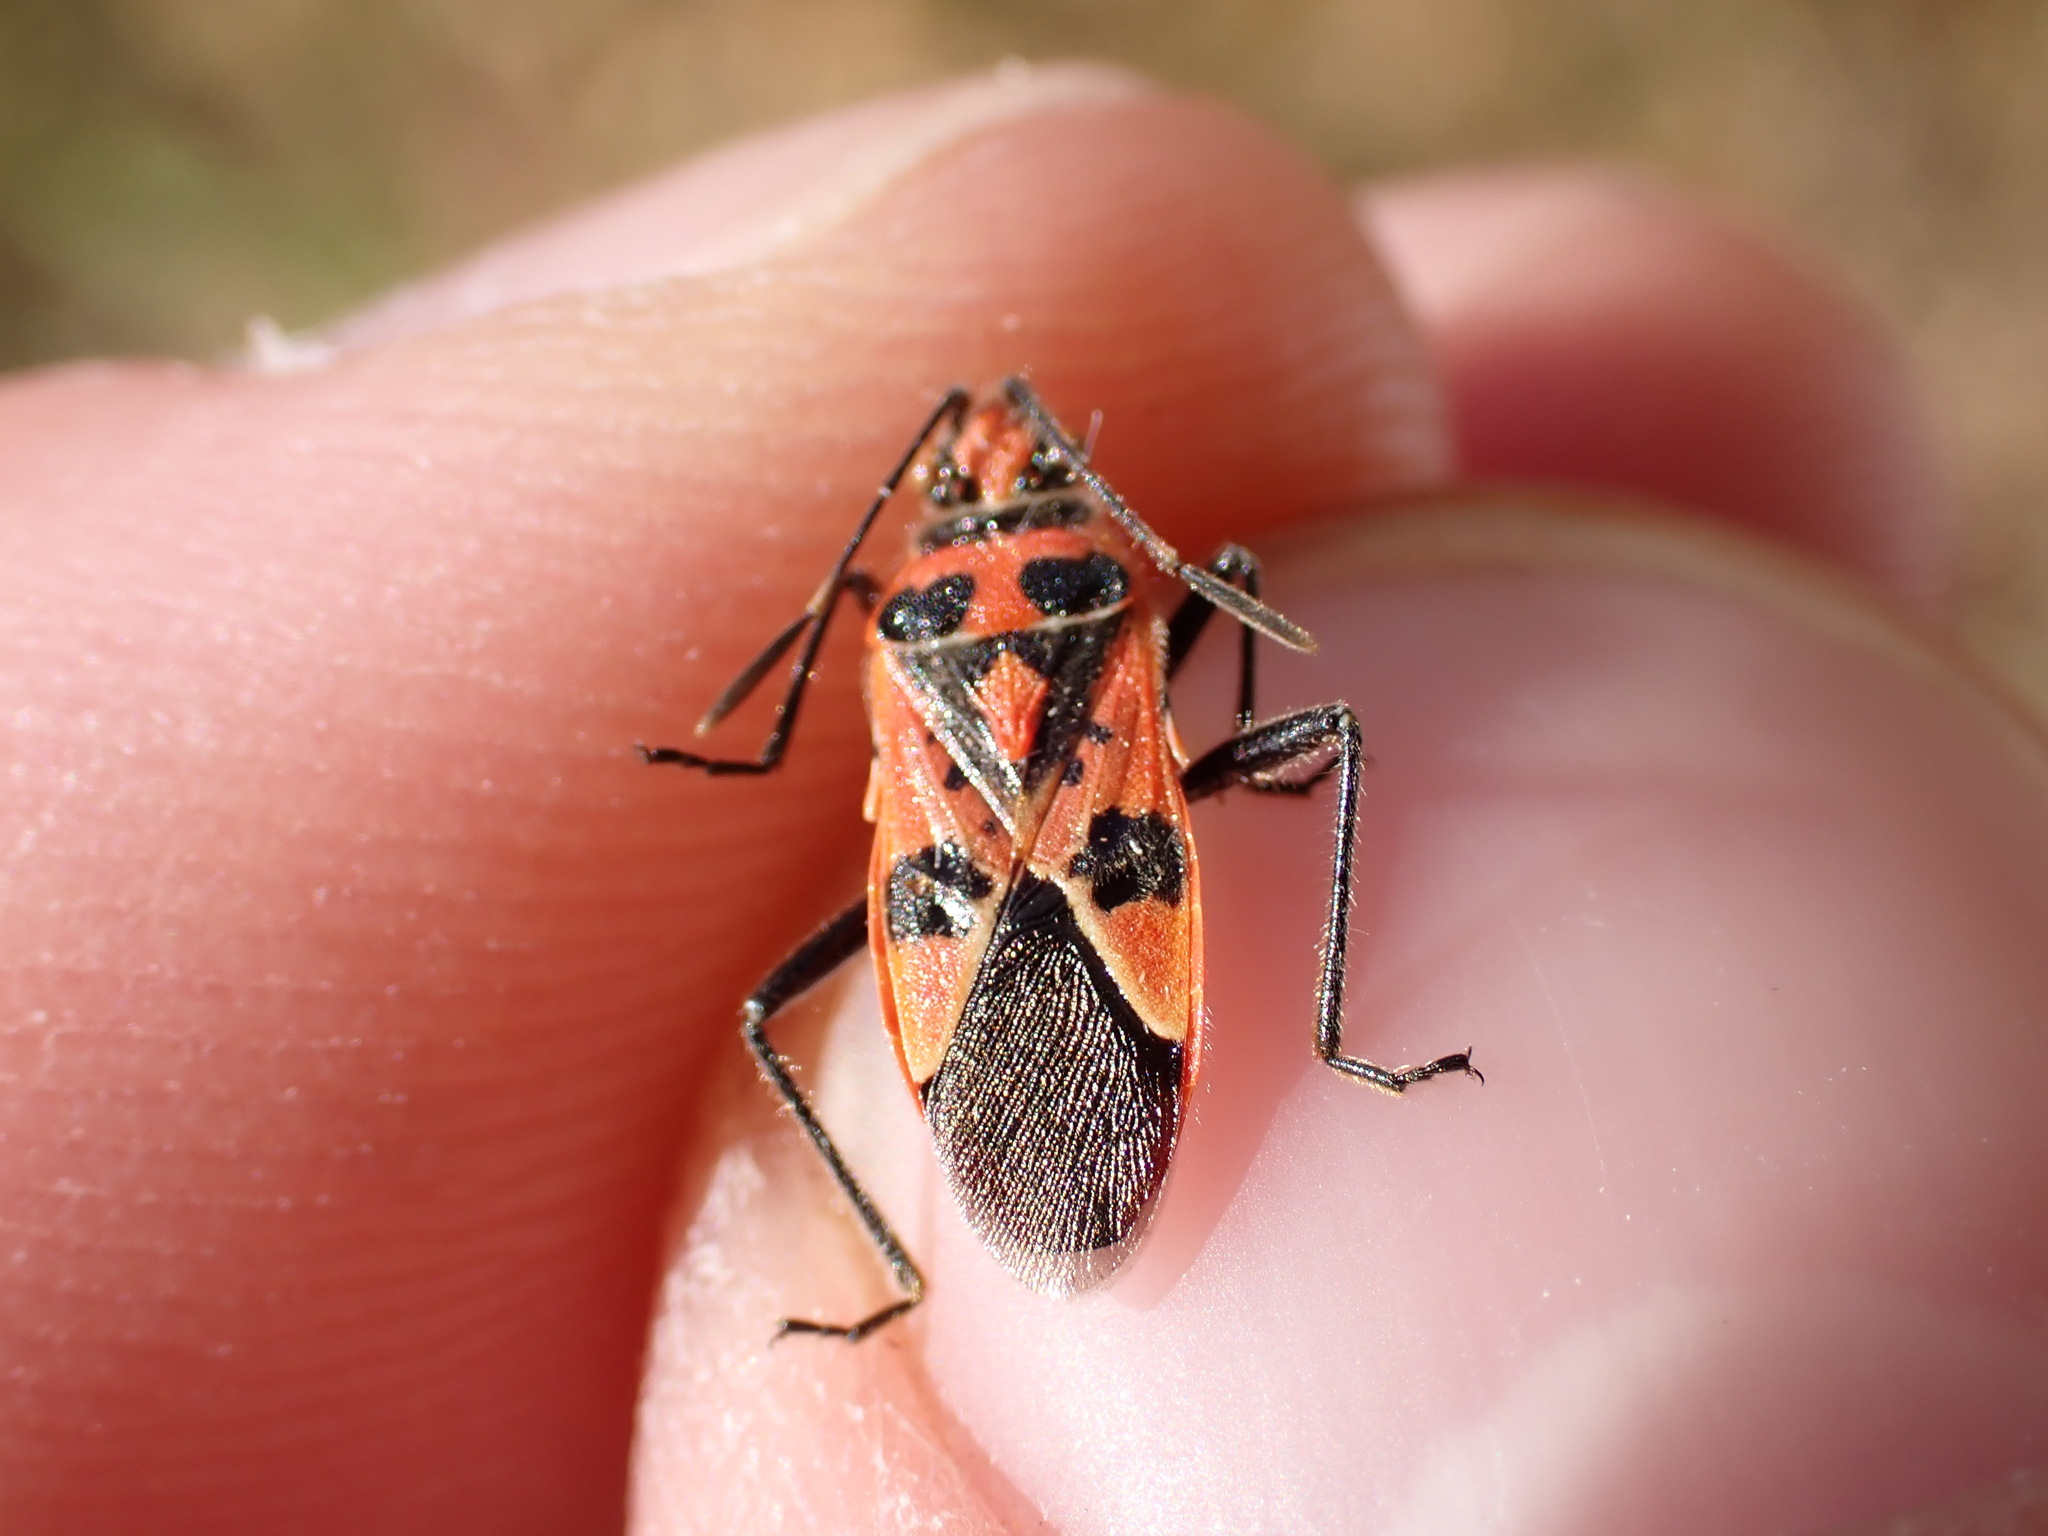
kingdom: Animalia
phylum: Arthropoda
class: Insecta
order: Hemiptera
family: Rhopalidae
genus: Corizus
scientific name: Corizus hyoscyami
